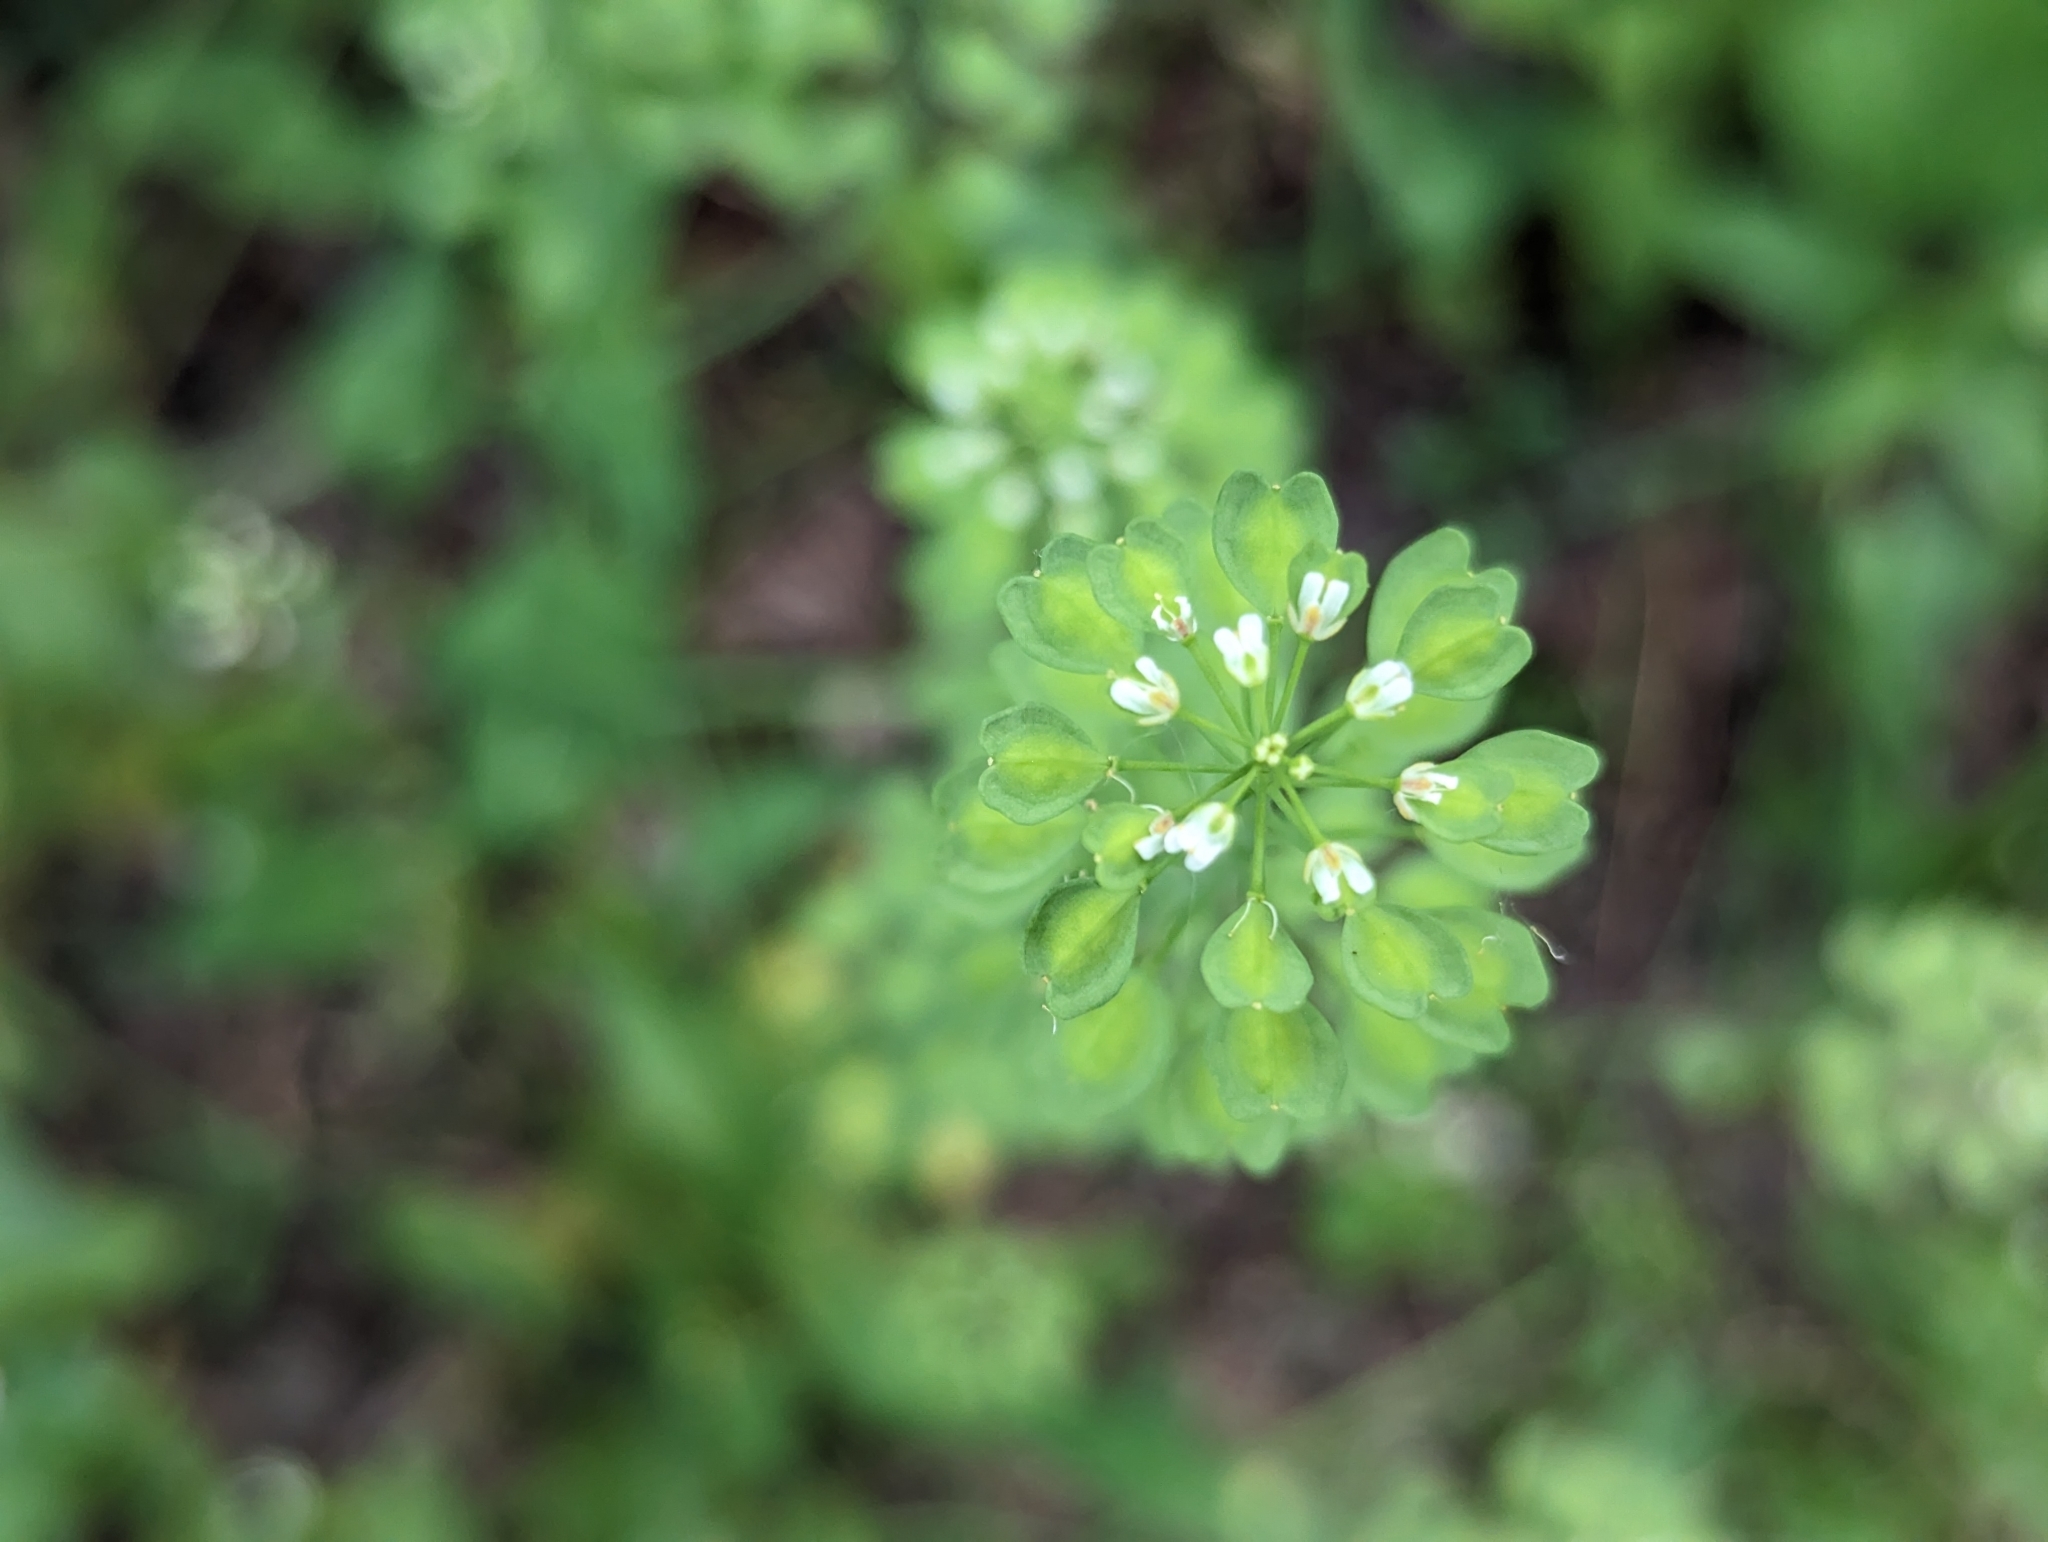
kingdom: Plantae
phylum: Tracheophyta
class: Magnoliopsida
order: Brassicales
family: Brassicaceae
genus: Noccaea
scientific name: Noccaea perfoliata
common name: Perfoliate pennycress
